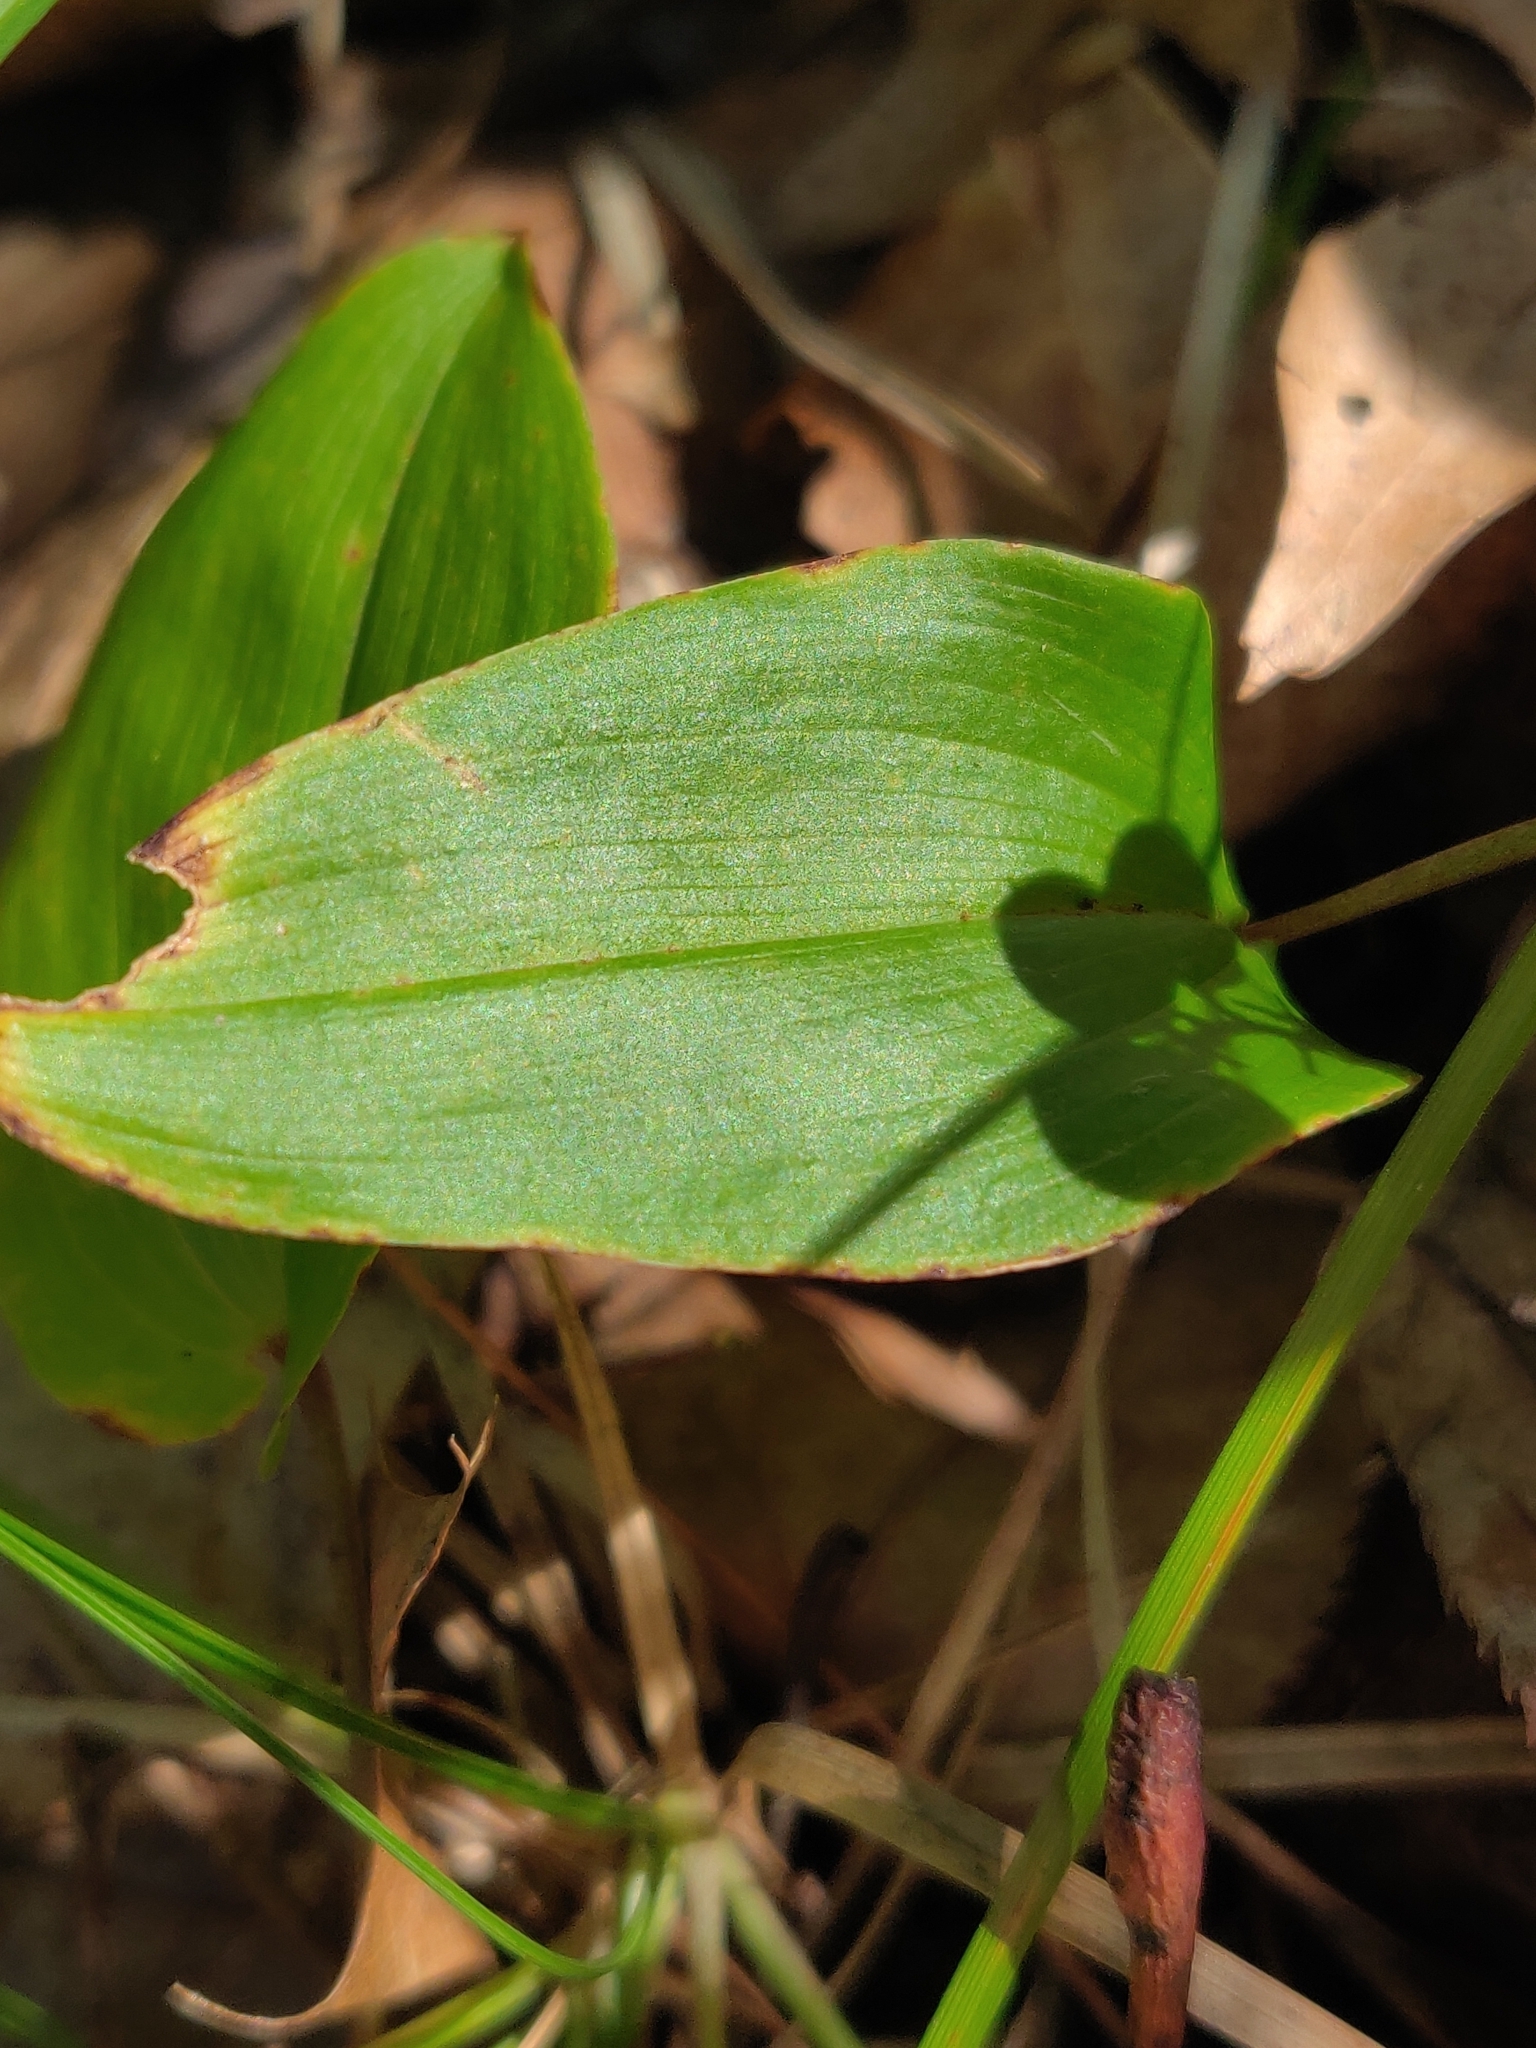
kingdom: Plantae
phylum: Tracheophyta
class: Liliopsida
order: Asparagales
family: Asparagaceae
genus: Maianthemum
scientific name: Maianthemum canadense
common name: False lily-of-the-valley
